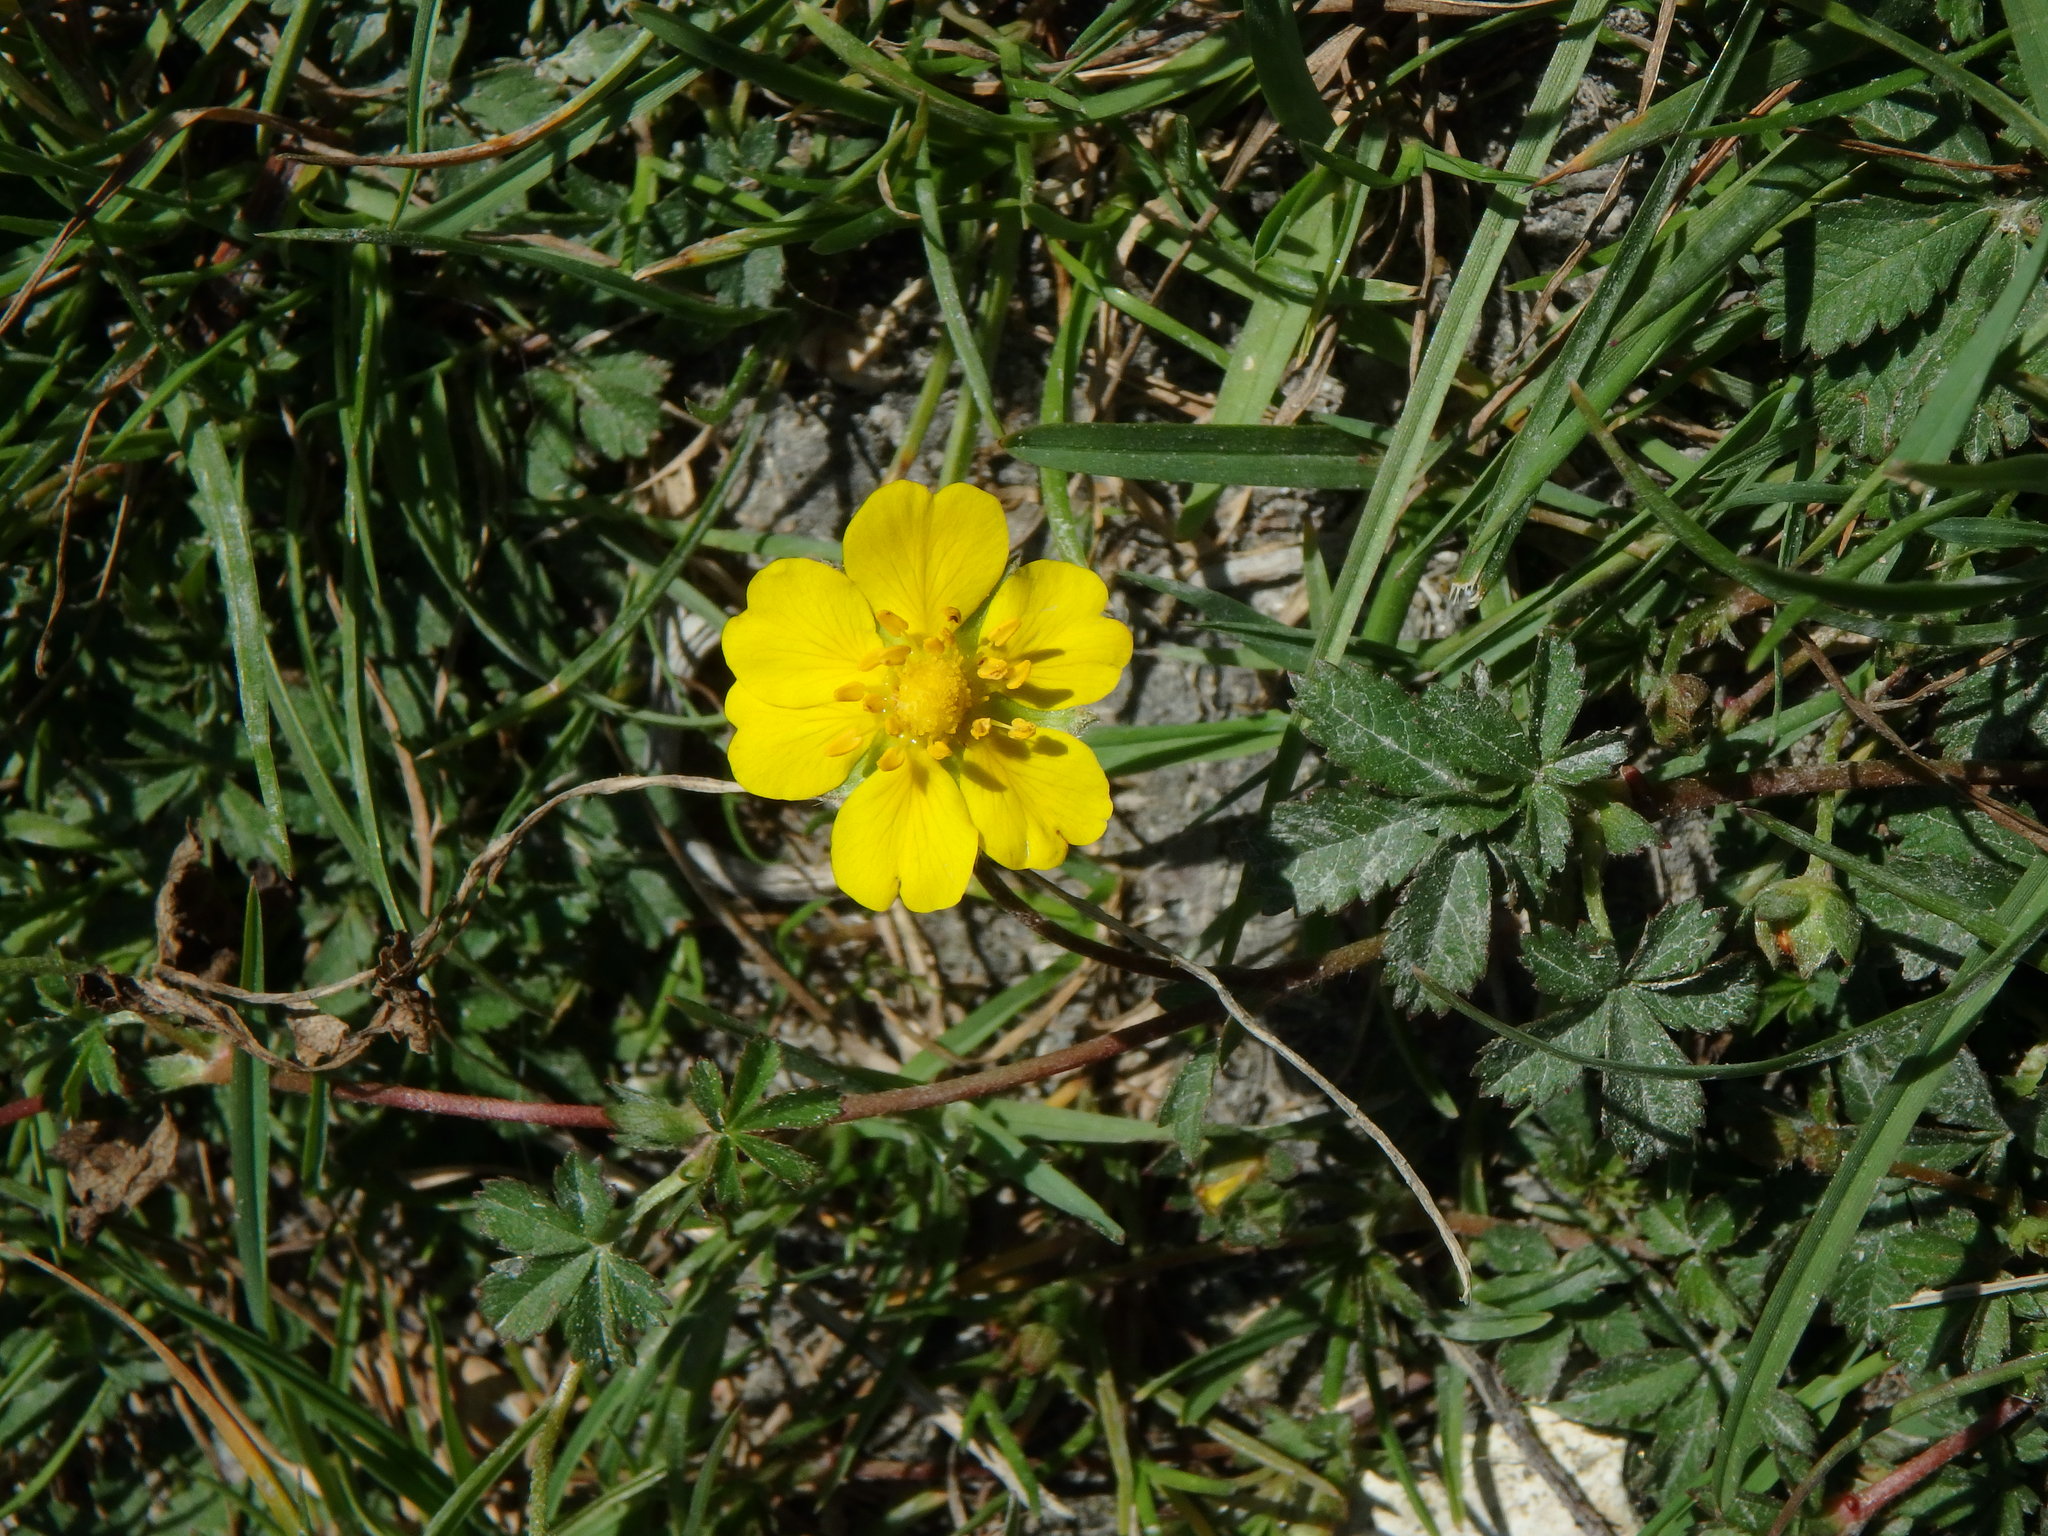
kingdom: Plantae
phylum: Tracheophyta
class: Magnoliopsida
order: Rosales
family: Rosaceae
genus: Potentilla
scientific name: Potentilla reptans
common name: Creeping cinquefoil
